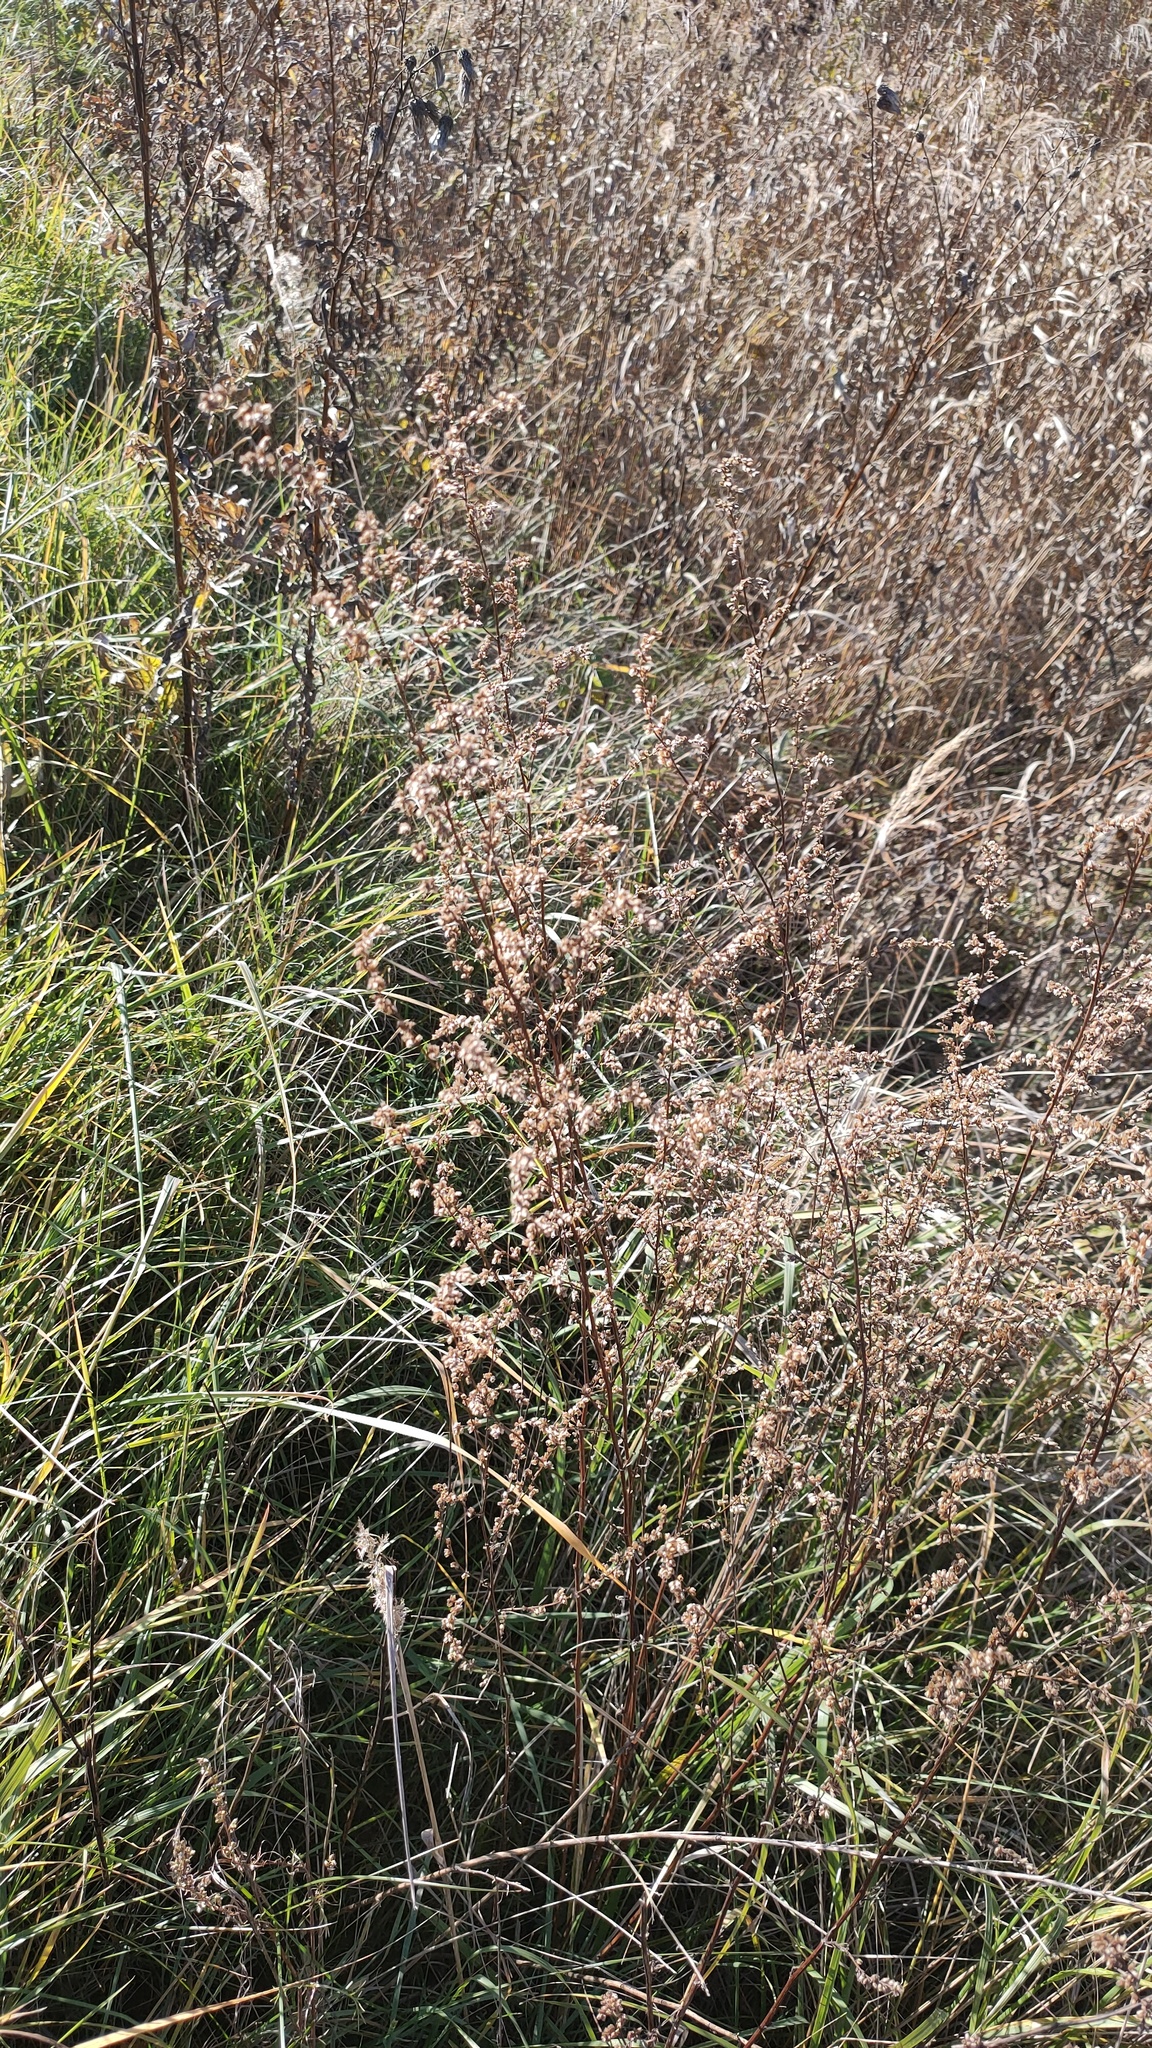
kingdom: Plantae
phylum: Tracheophyta
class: Magnoliopsida
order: Asterales
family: Asteraceae
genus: Artemisia
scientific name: Artemisia vulgaris
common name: Mugwort
